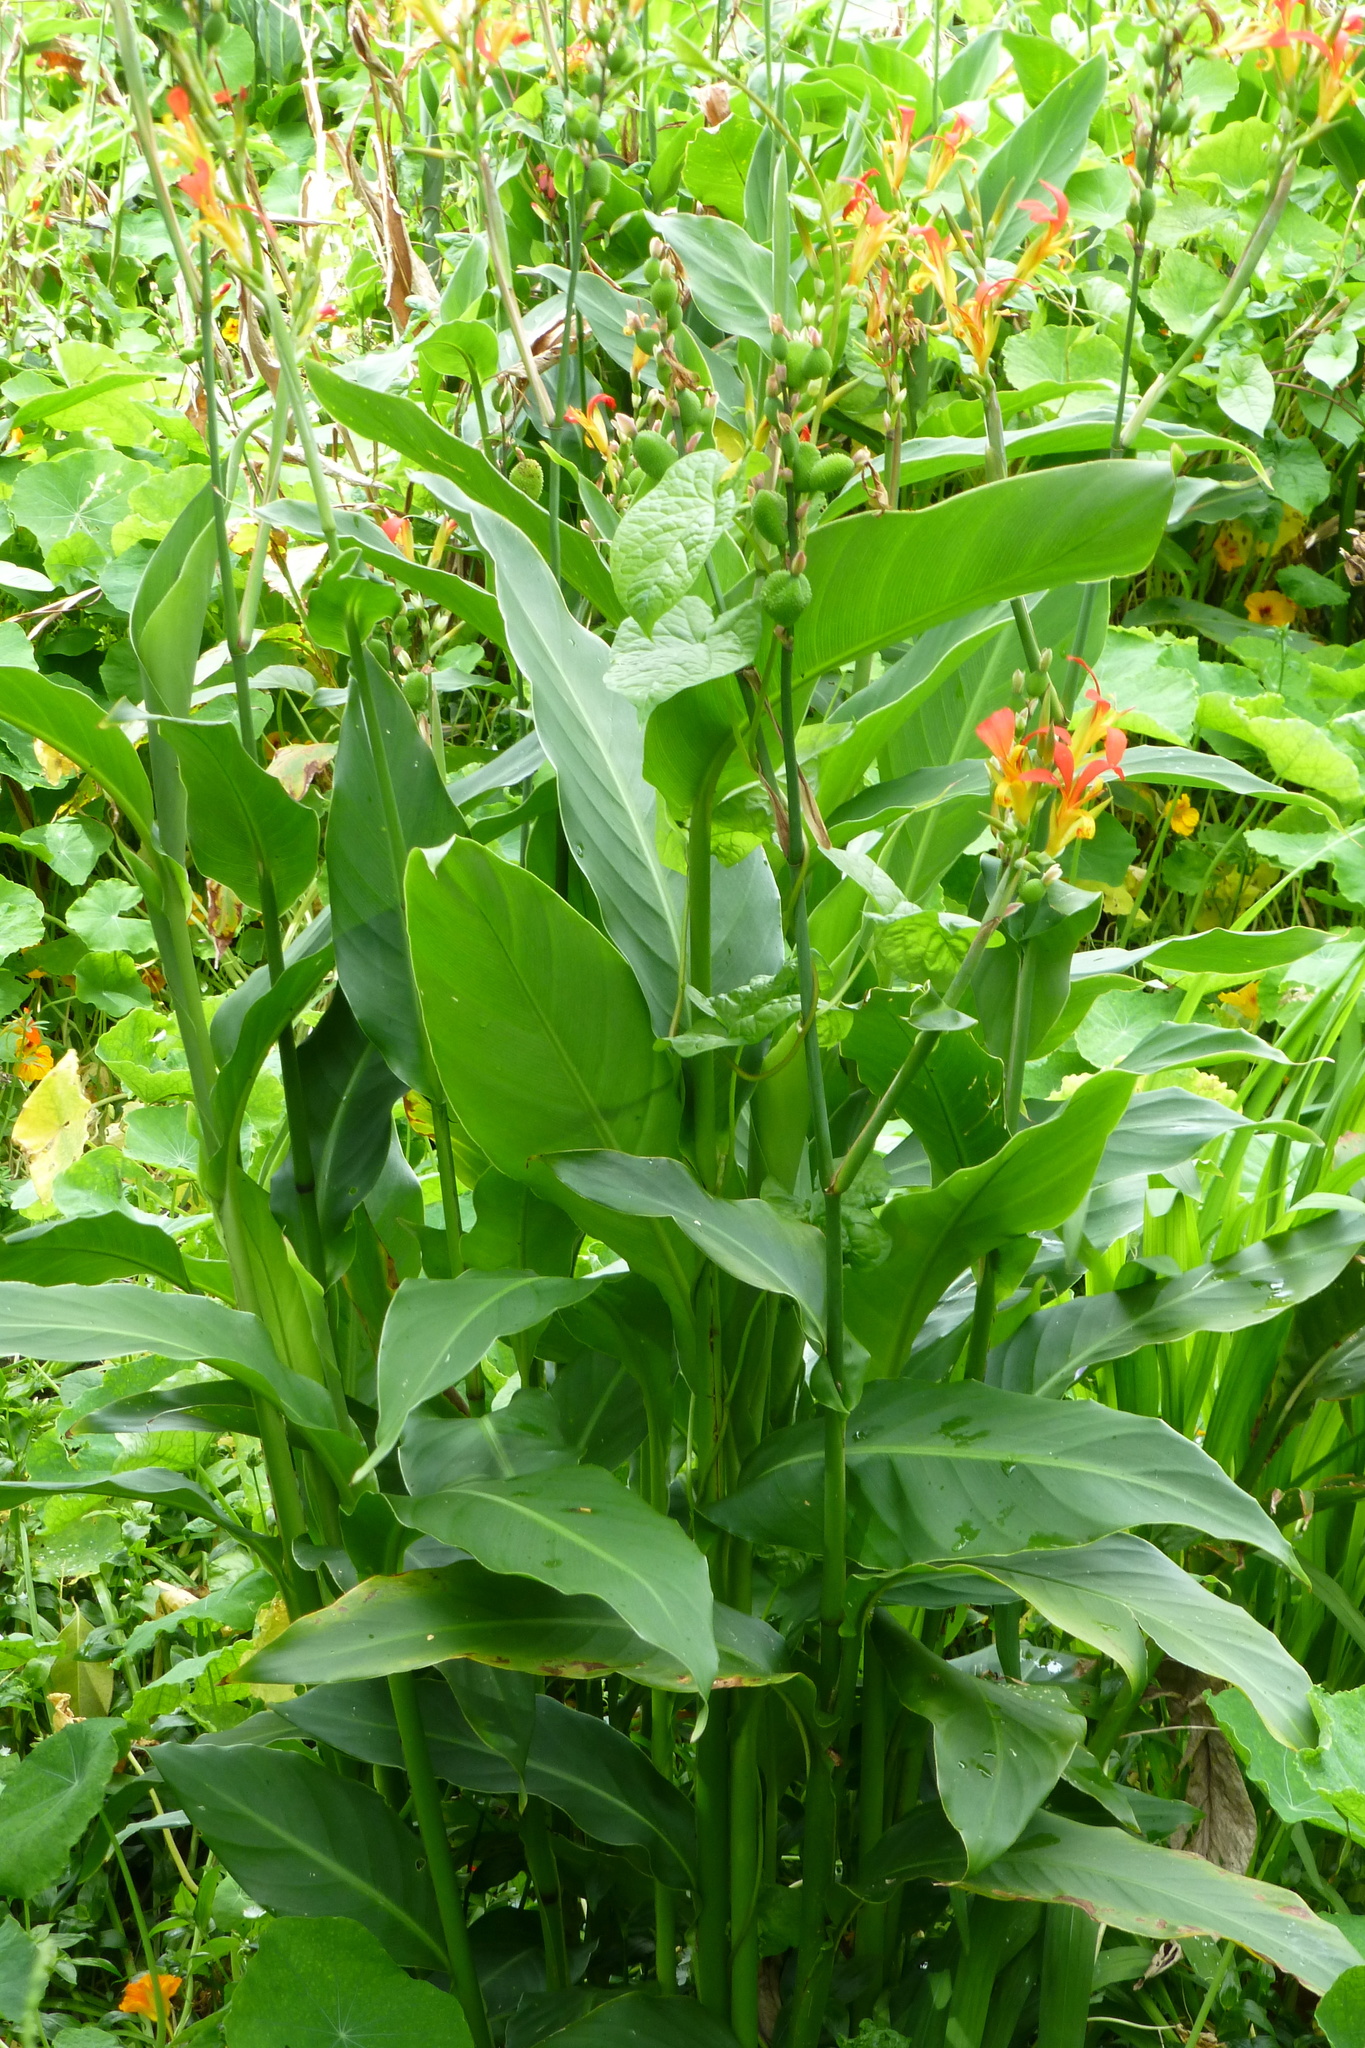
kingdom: Plantae
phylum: Tracheophyta
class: Liliopsida
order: Zingiberales
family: Cannaceae
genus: Canna
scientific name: Canna indica
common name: Indian shot
